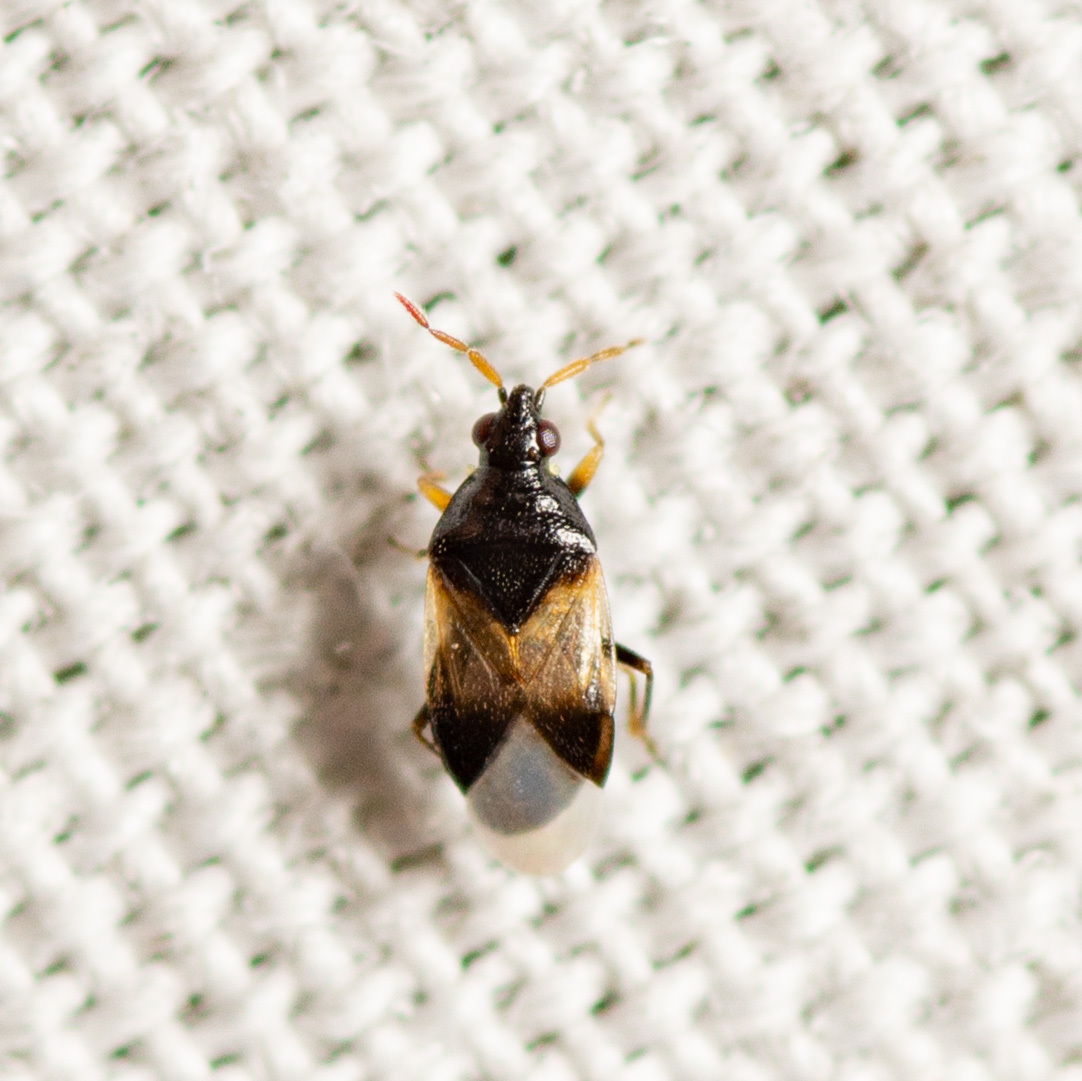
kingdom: Animalia
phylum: Arthropoda
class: Insecta
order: Hemiptera
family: Anthocoridae
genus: Orius
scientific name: Orius insidiosus
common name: Insidious flower bug
